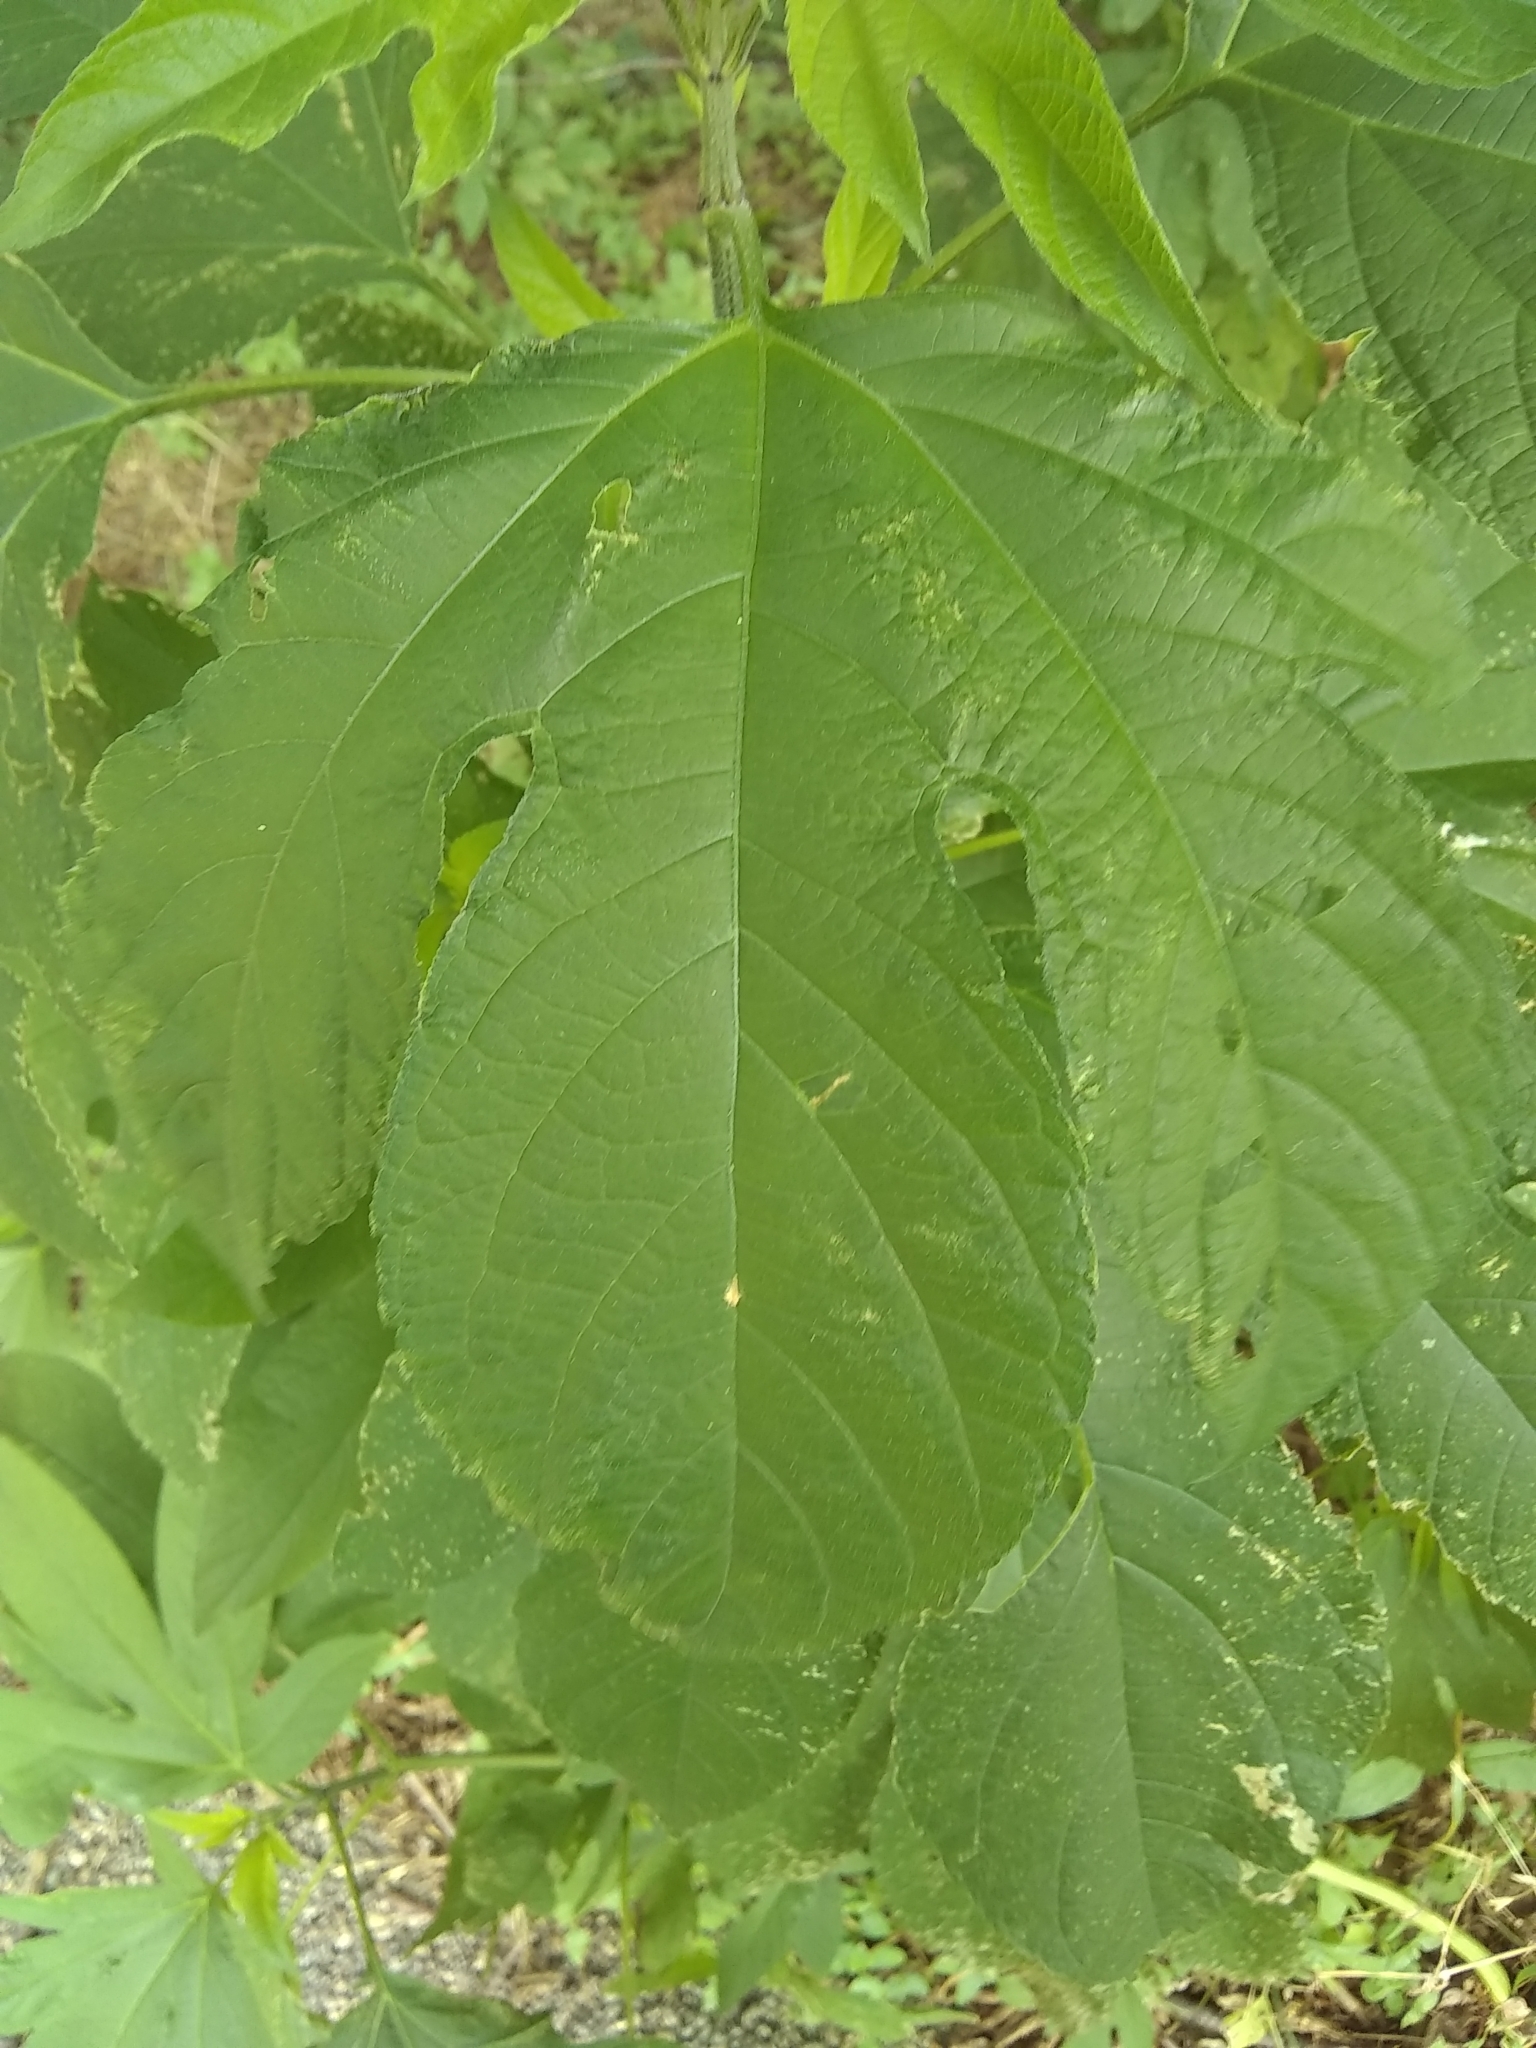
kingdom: Plantae
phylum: Tracheophyta
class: Magnoliopsida
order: Asterales
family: Asteraceae
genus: Ambrosia
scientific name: Ambrosia trifida
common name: Giant ragweed
